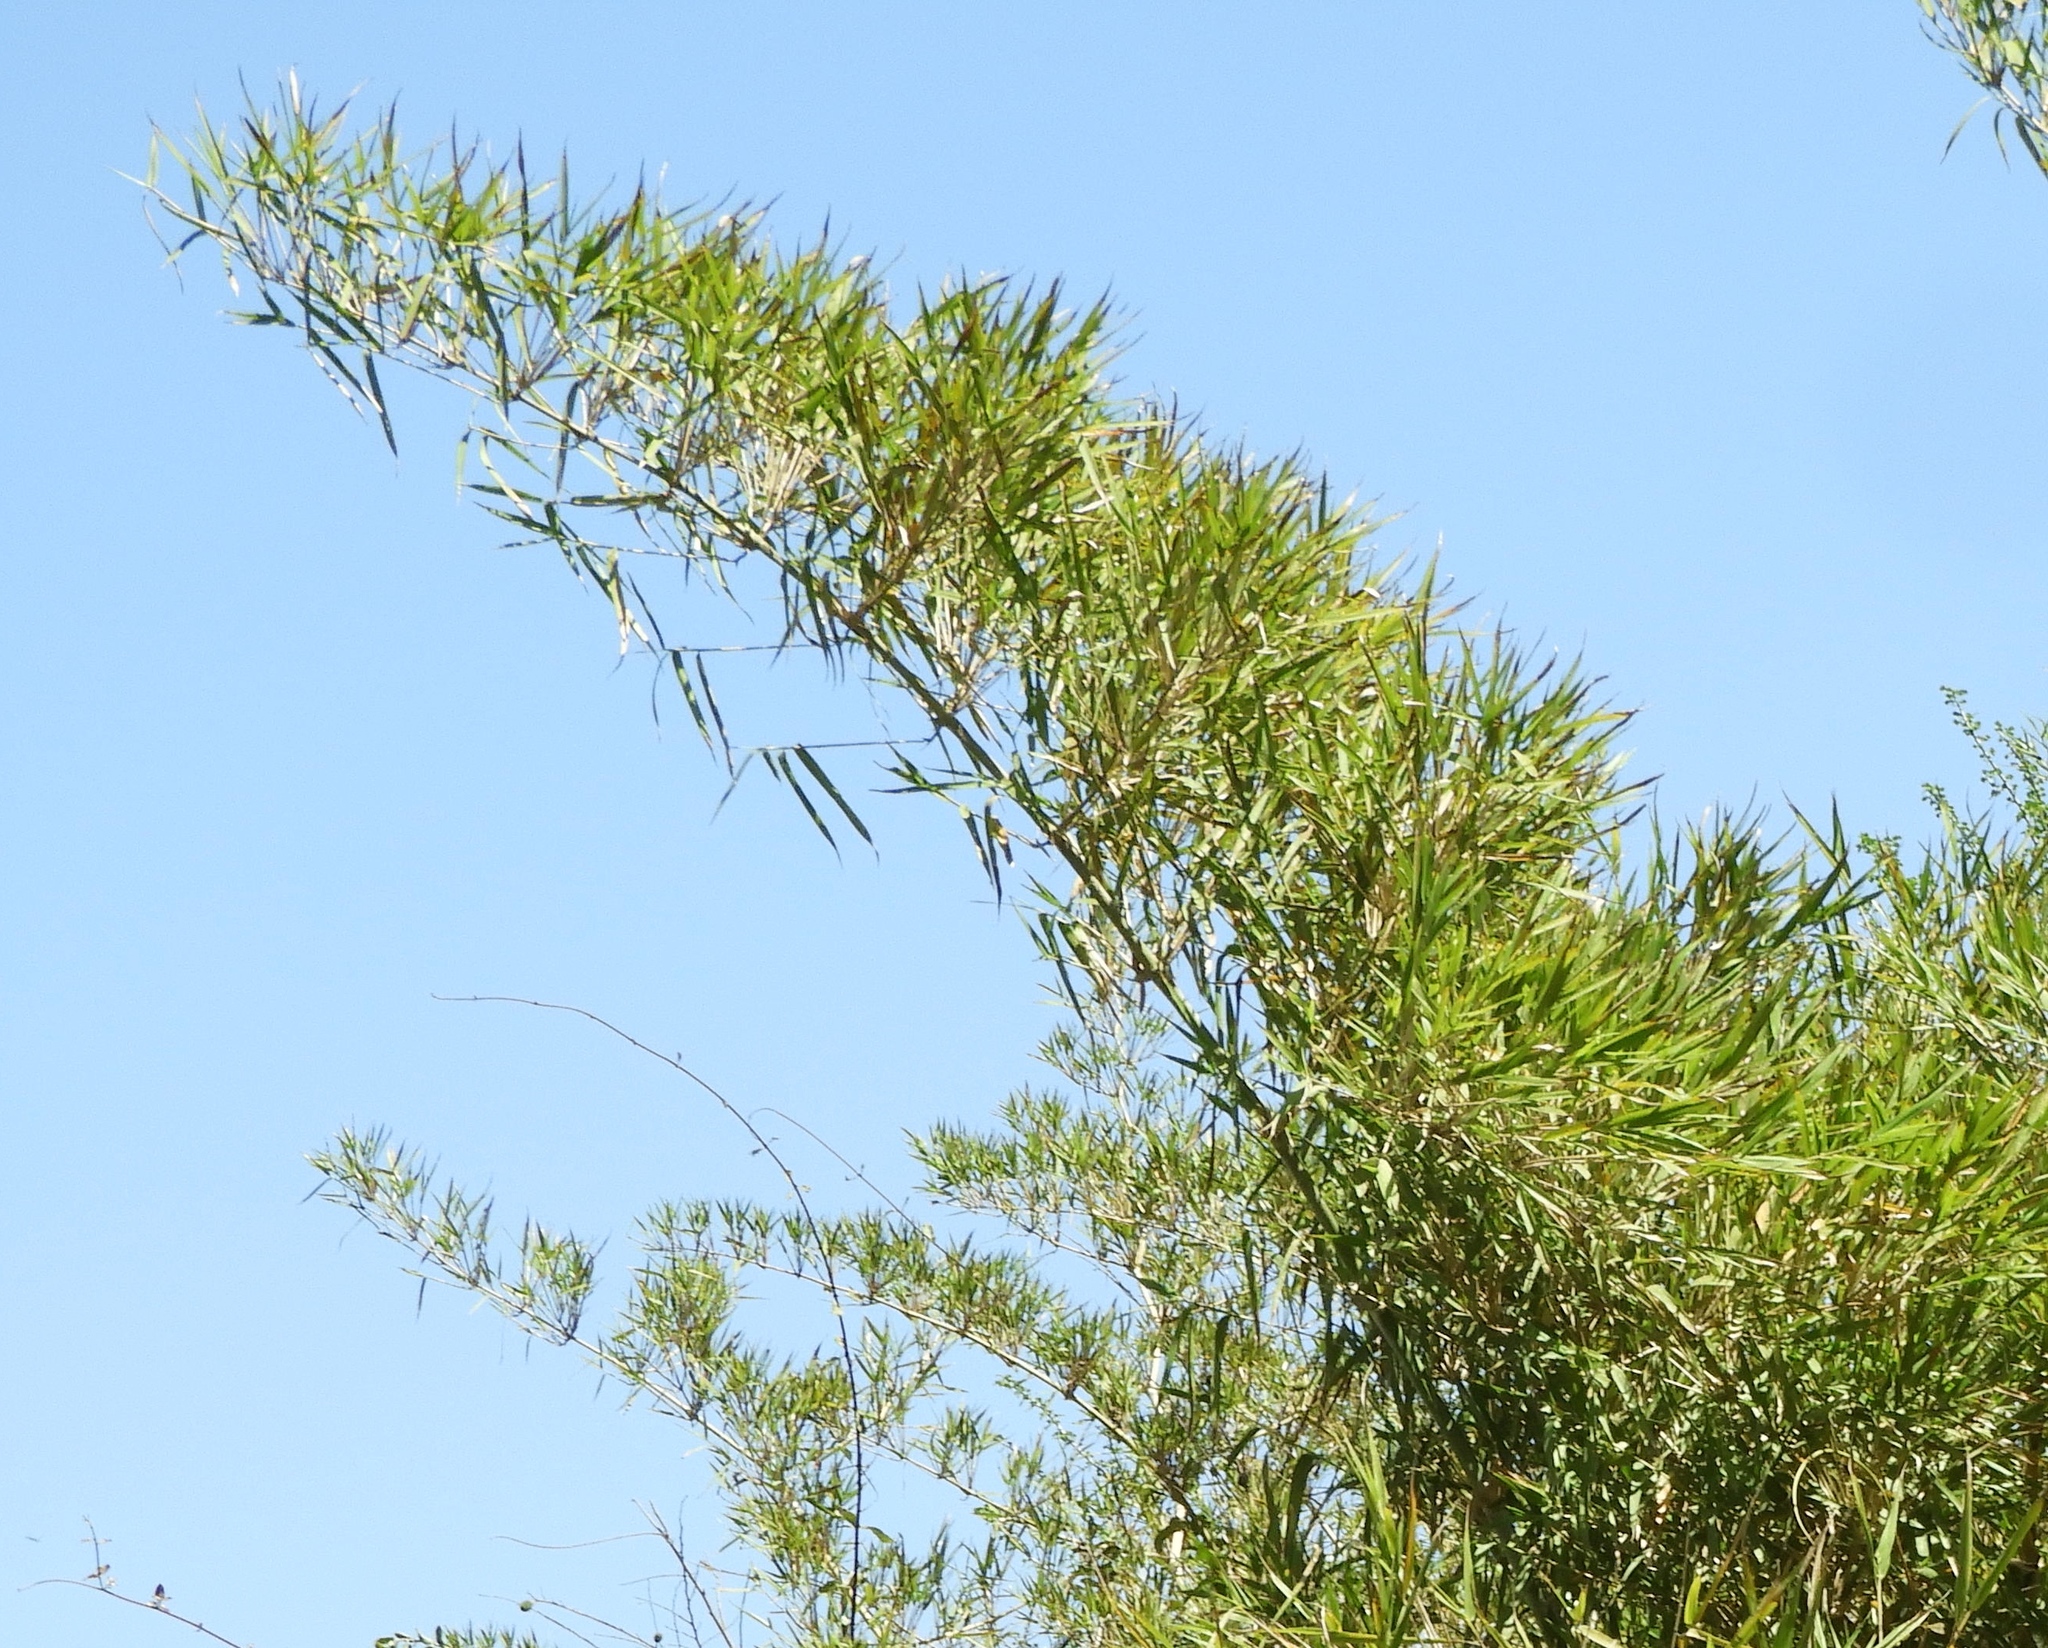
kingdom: Plantae
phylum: Tracheophyta
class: Liliopsida
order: Poales
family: Poaceae
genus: Guadua
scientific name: Guadua paniculata
